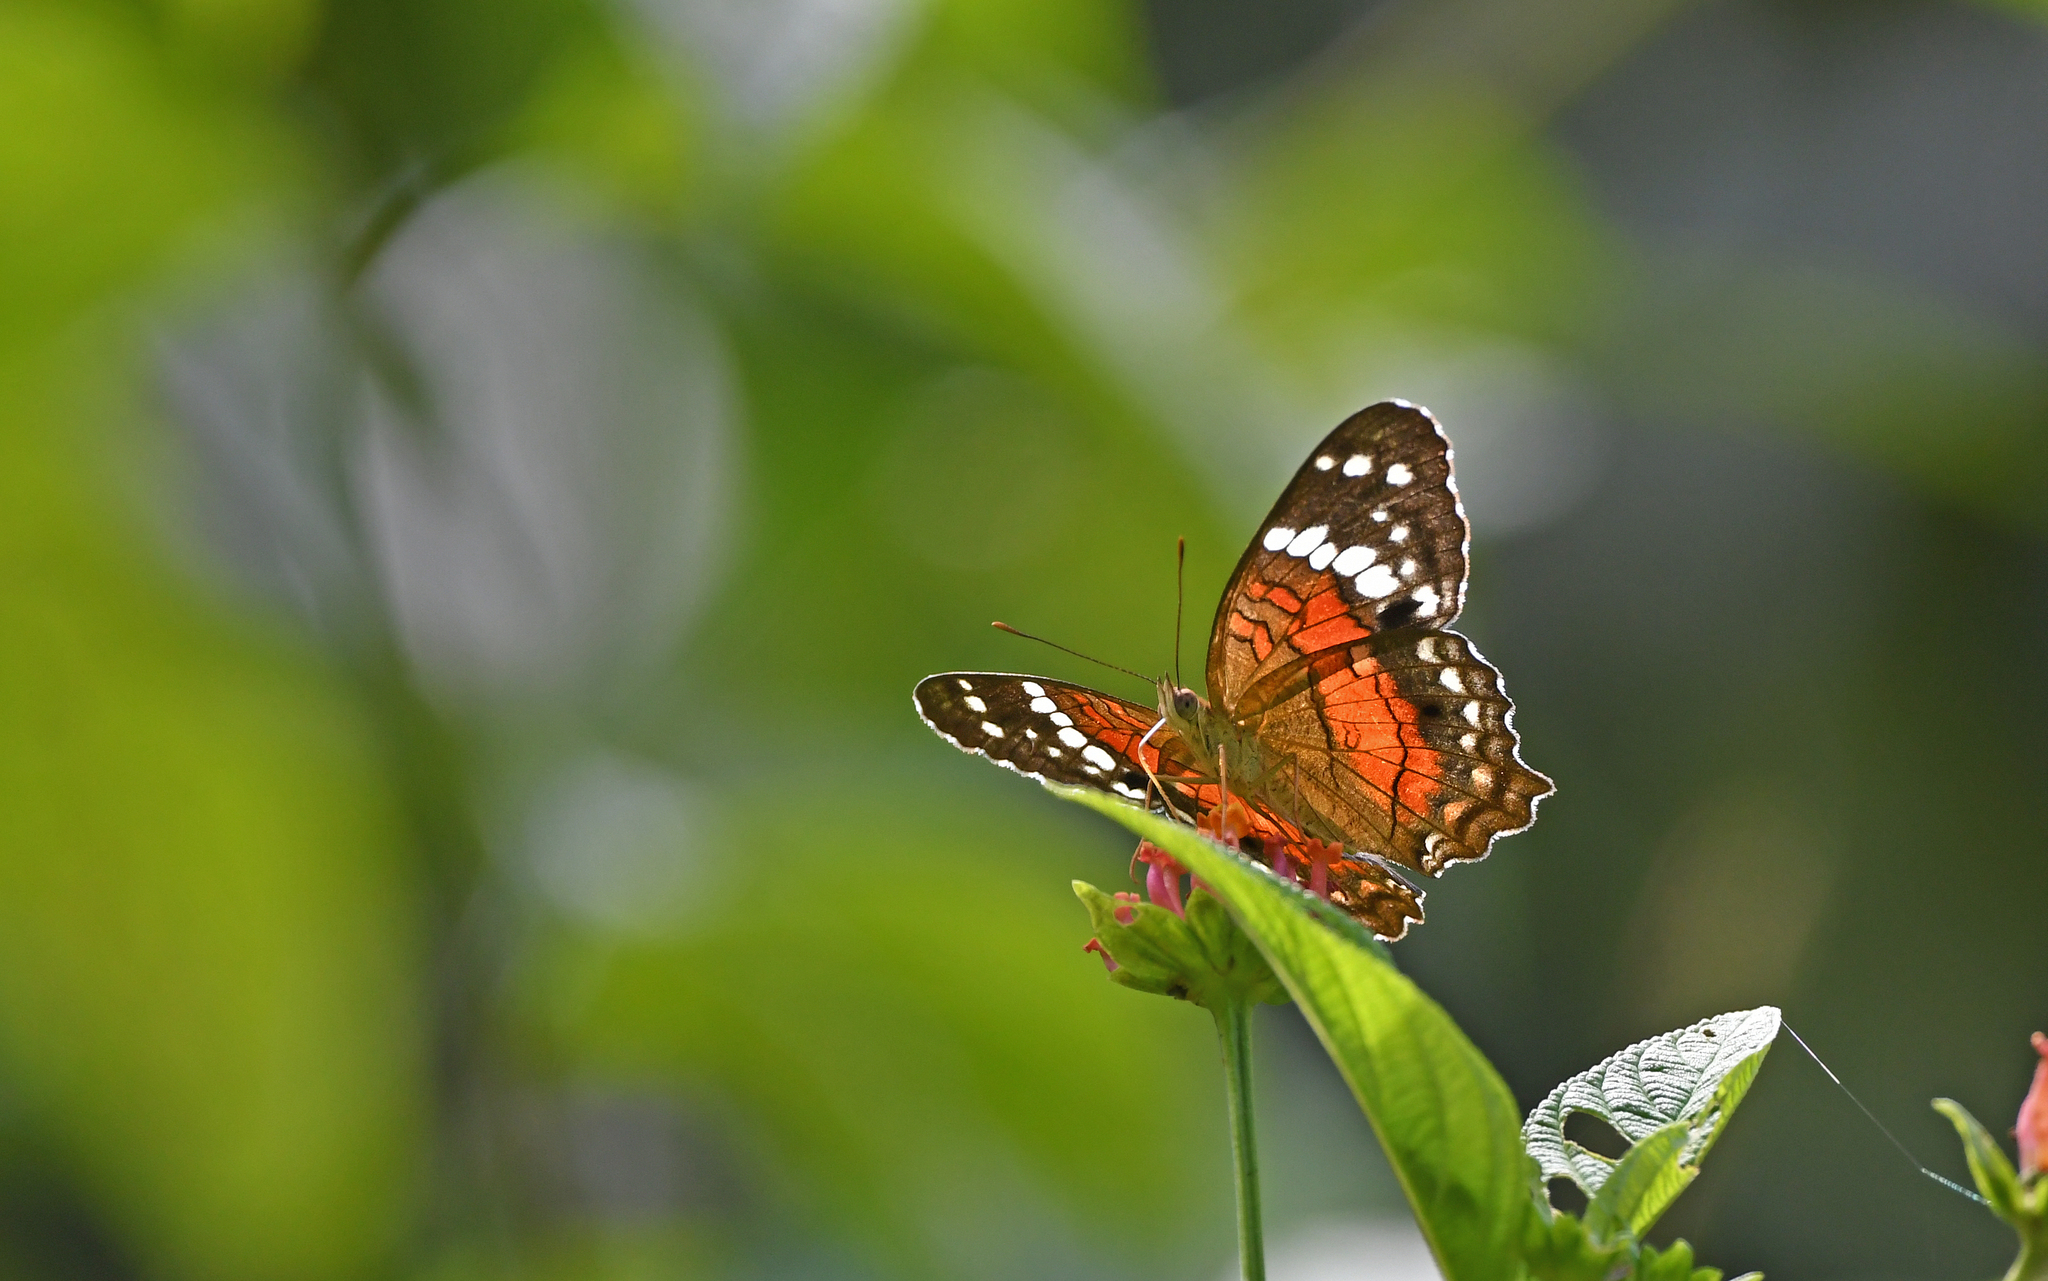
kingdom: Animalia
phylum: Arthropoda
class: Insecta
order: Lepidoptera
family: Nymphalidae
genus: Anartia
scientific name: Anartia amathea
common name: Red peacock
